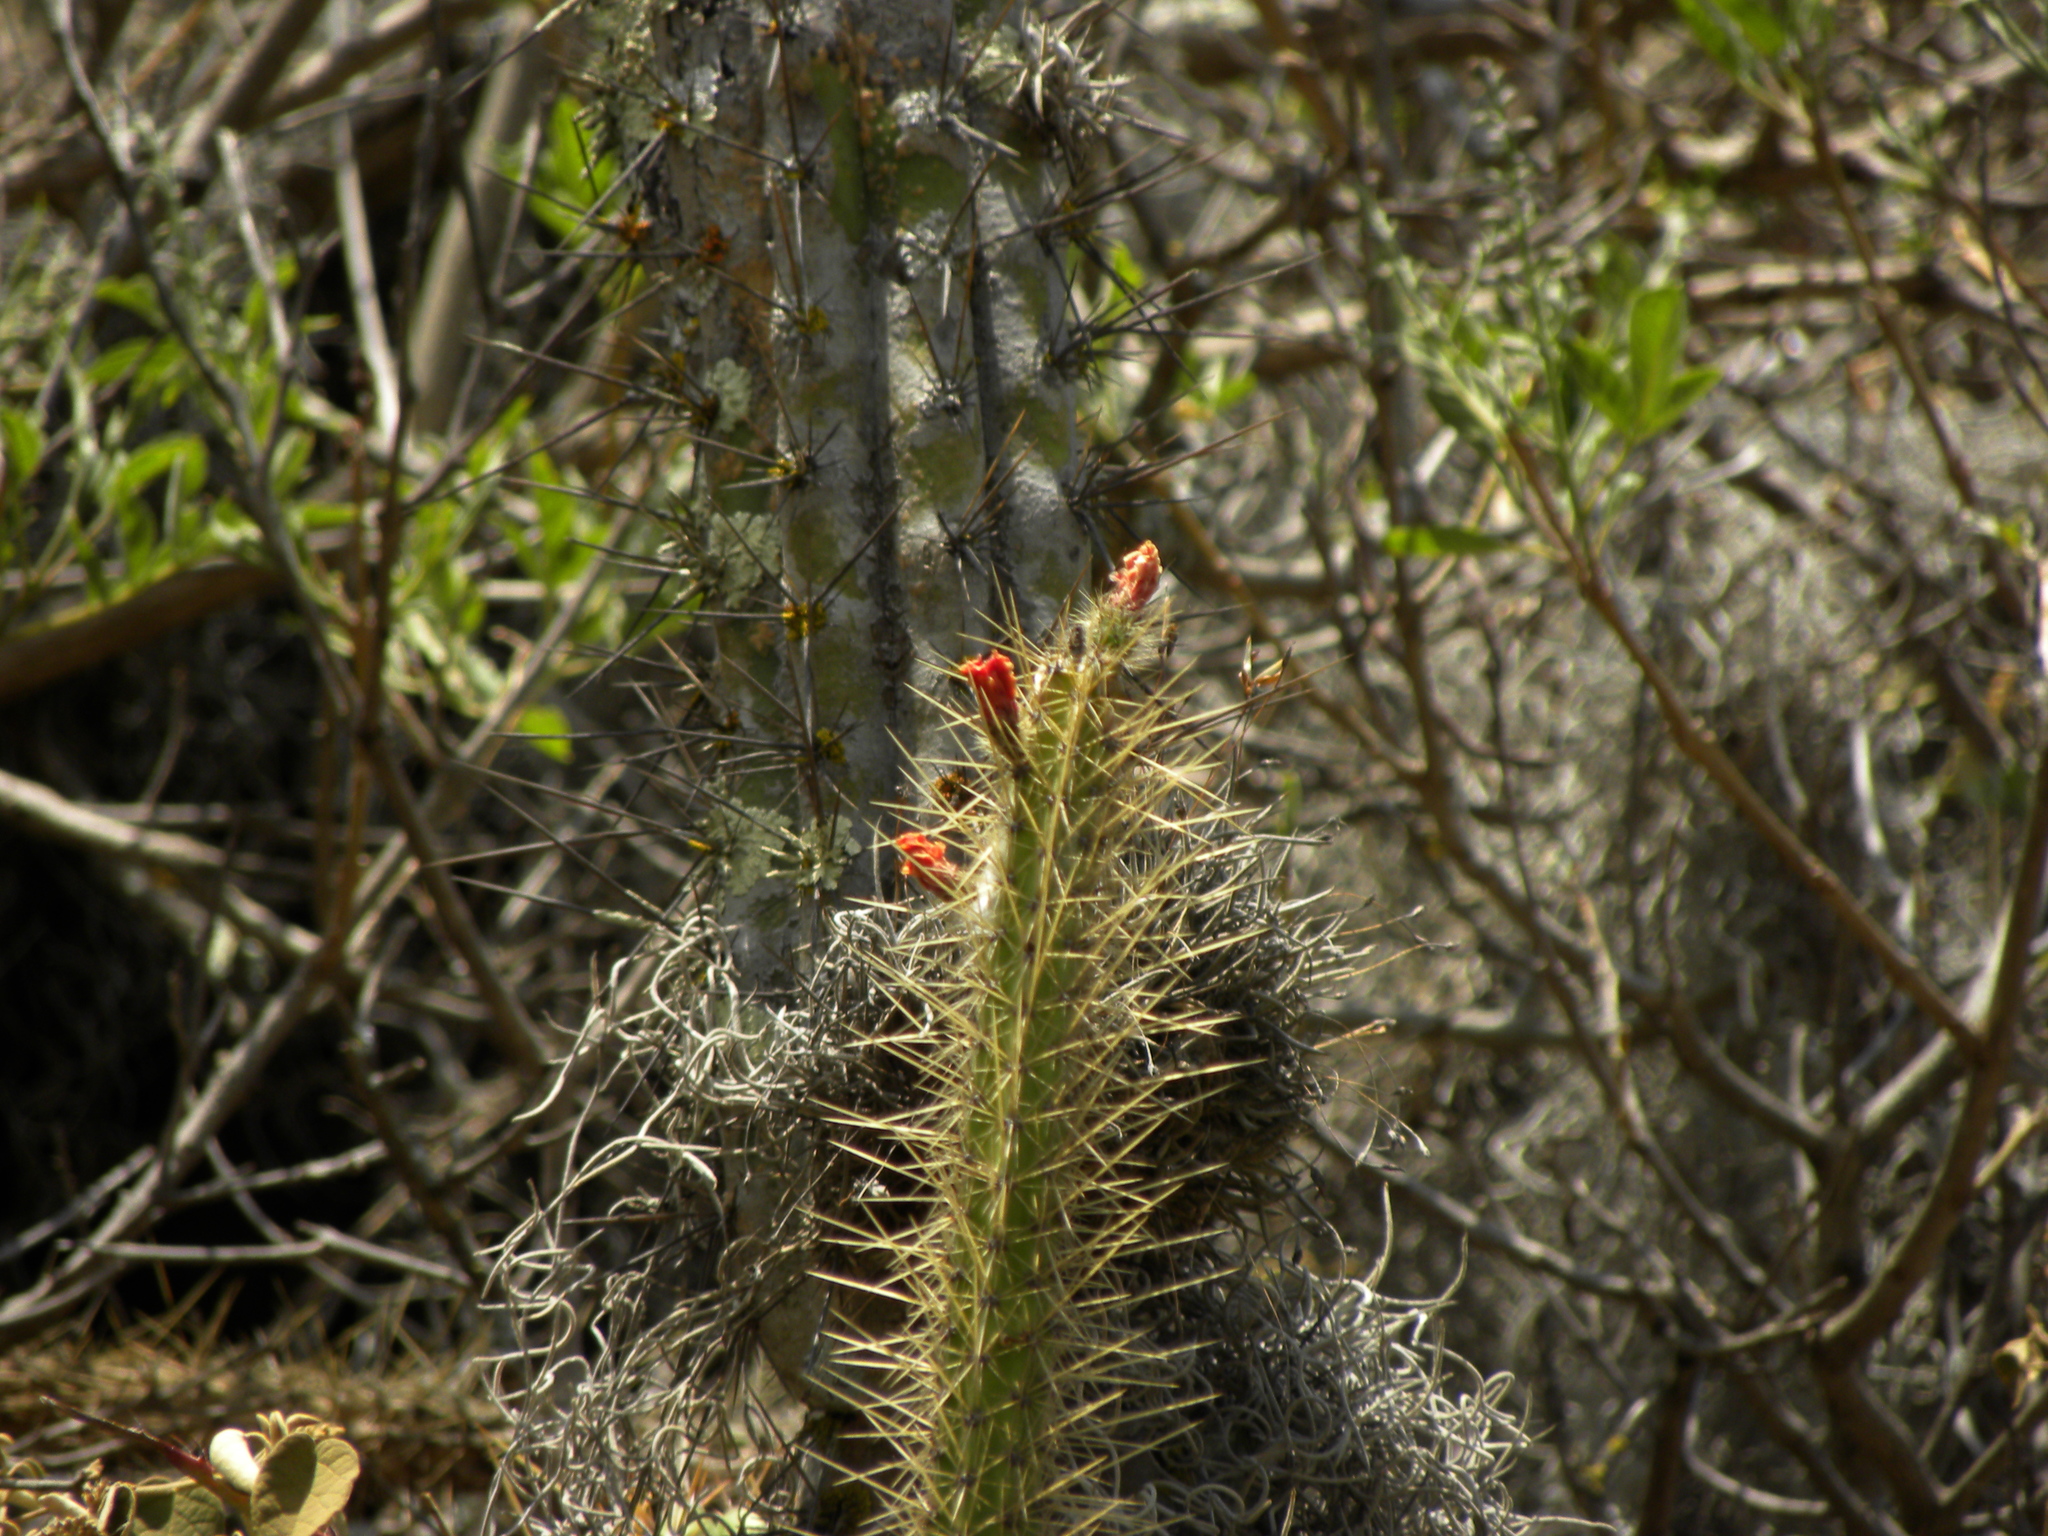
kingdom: Plantae
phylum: Tracheophyta
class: Magnoliopsida
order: Caryophyllales
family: Cactaceae
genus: Corryocactus
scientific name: Corryocactus erectus
